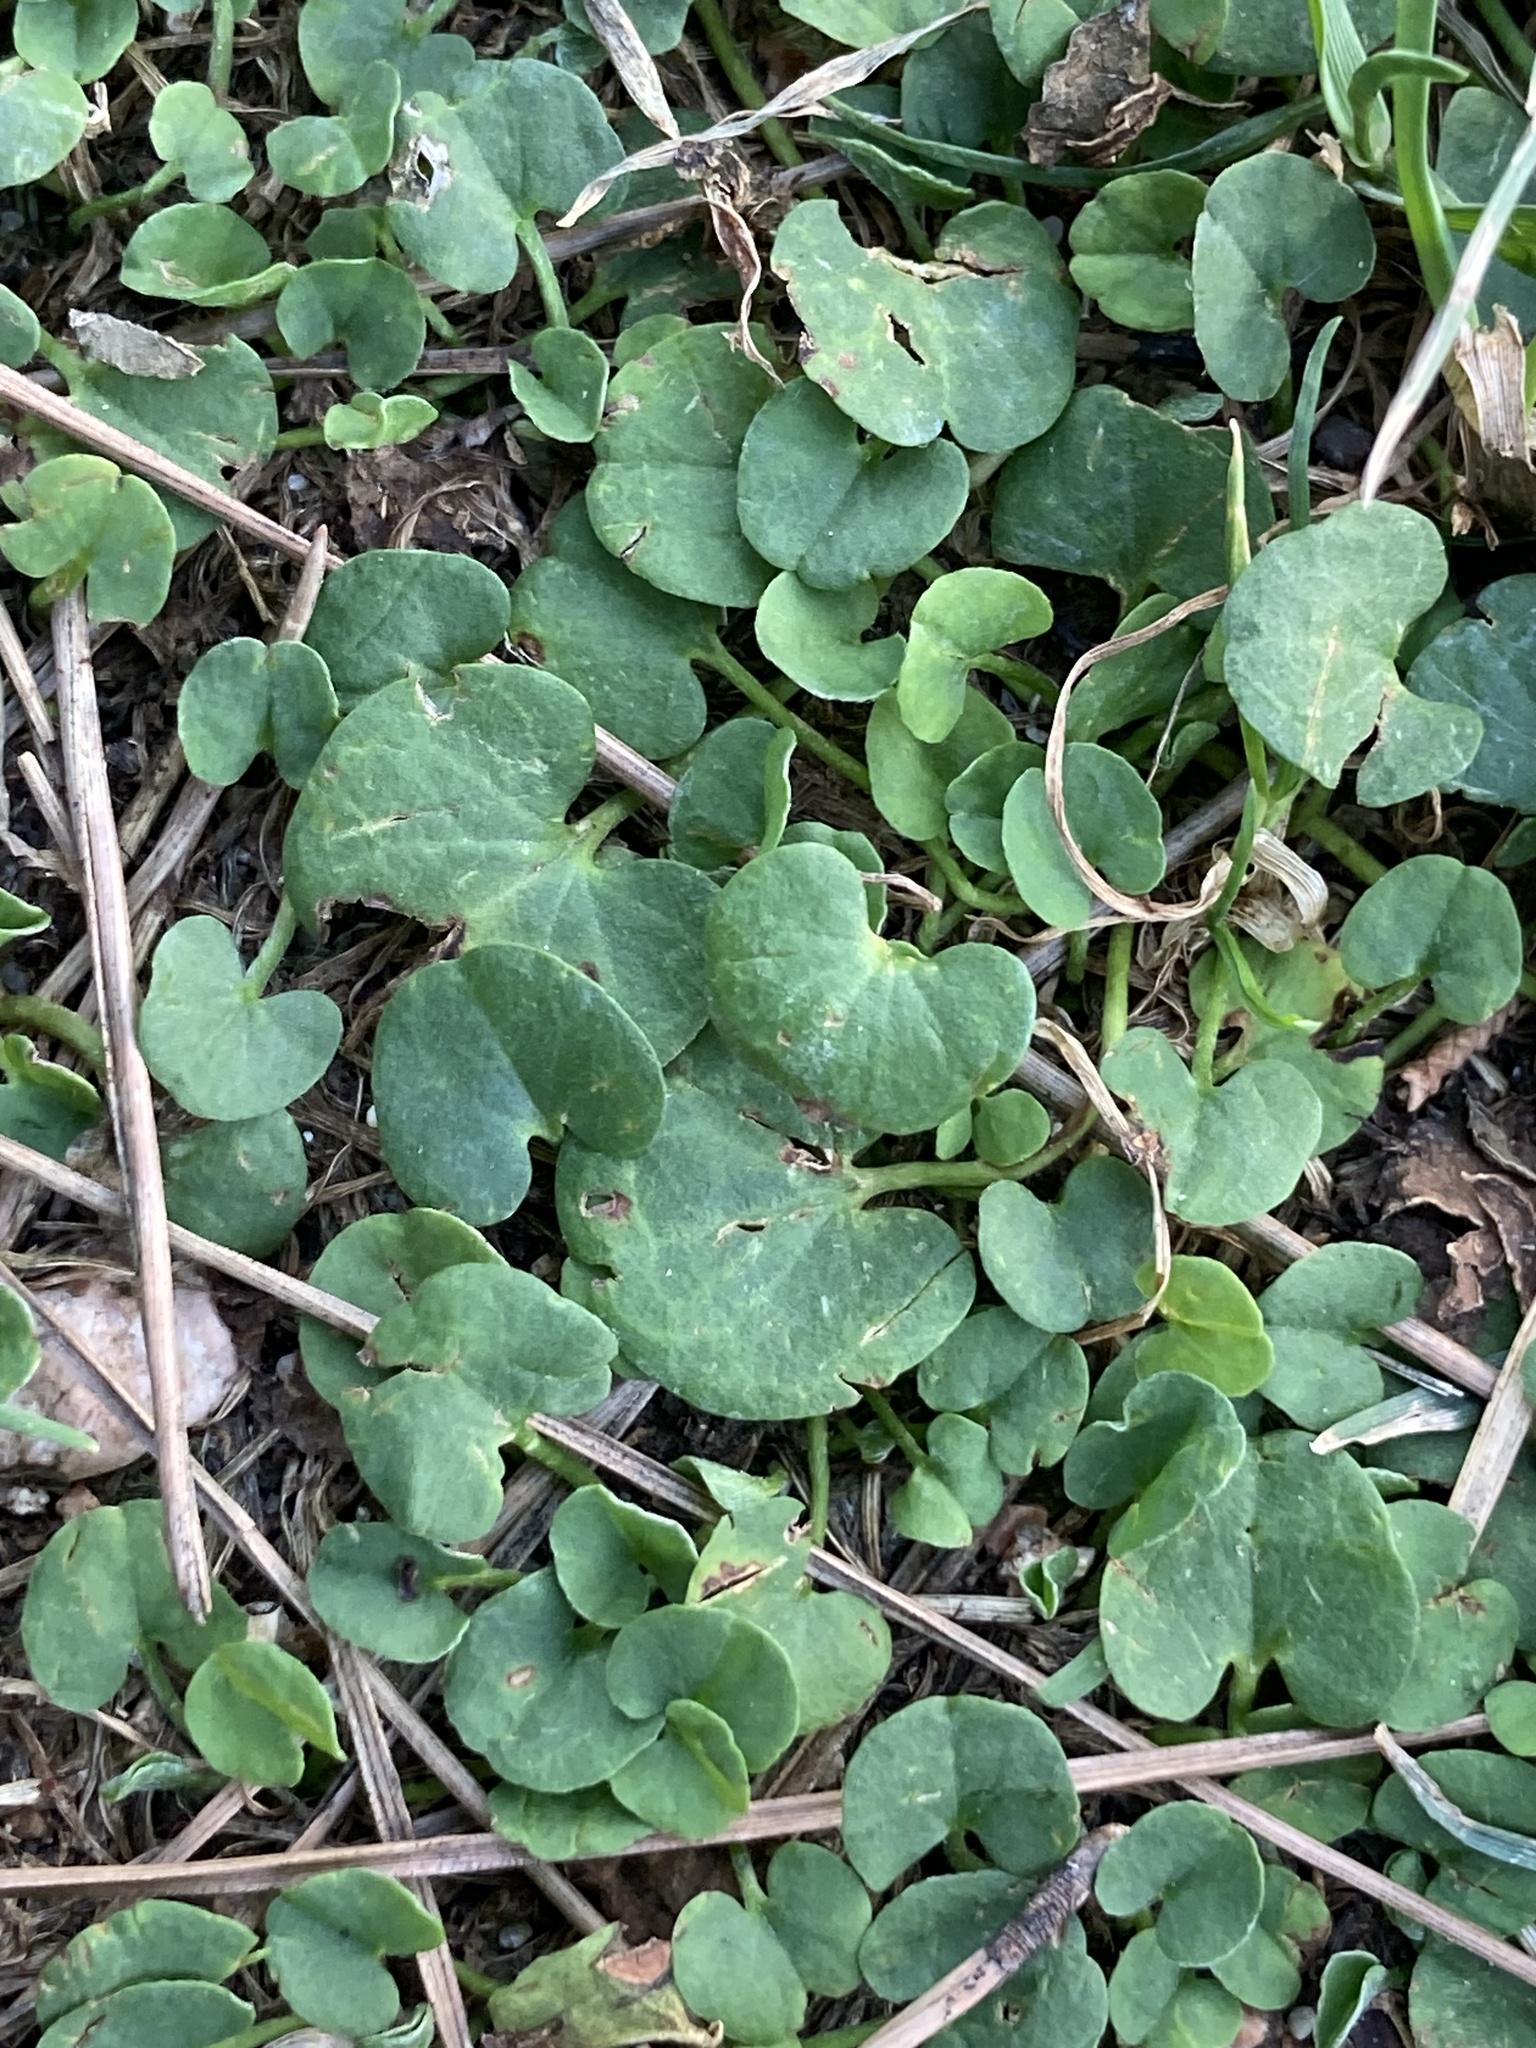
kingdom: Plantae
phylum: Tracheophyta
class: Magnoliopsida
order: Solanales
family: Convolvulaceae
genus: Dichondra
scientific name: Dichondra micrantha
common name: Kidneyweed
